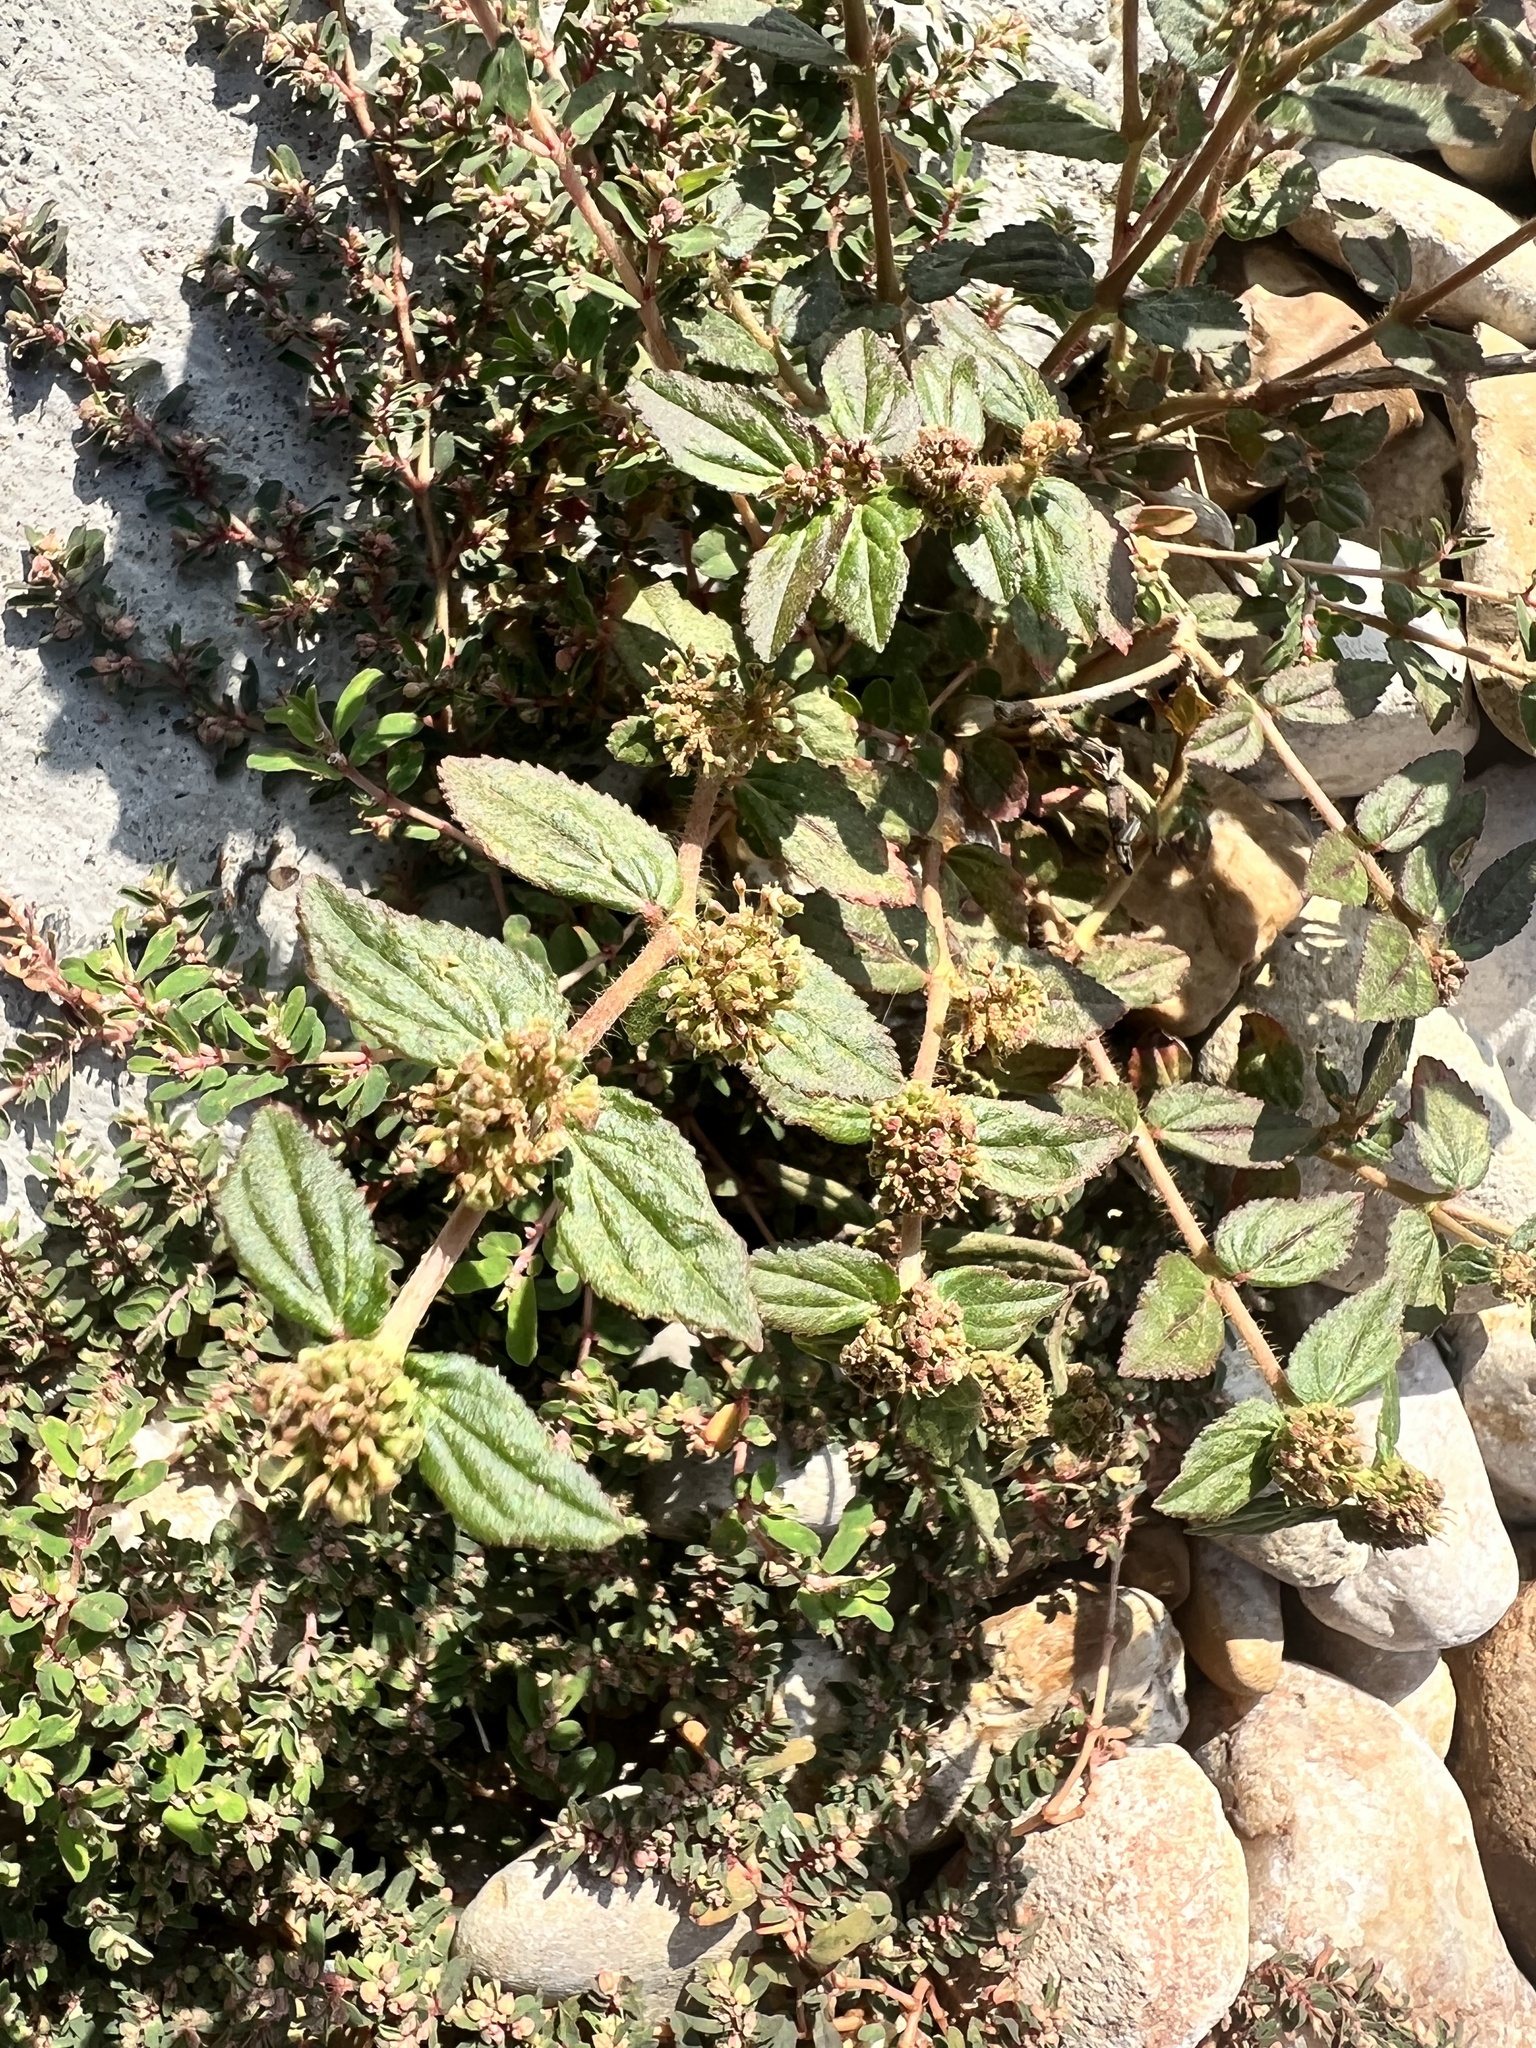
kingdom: Plantae
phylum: Tracheophyta
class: Magnoliopsida
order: Malpighiales
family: Euphorbiaceae
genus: Euphorbia
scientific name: Euphorbia hirta
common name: Pillpod sandmat
